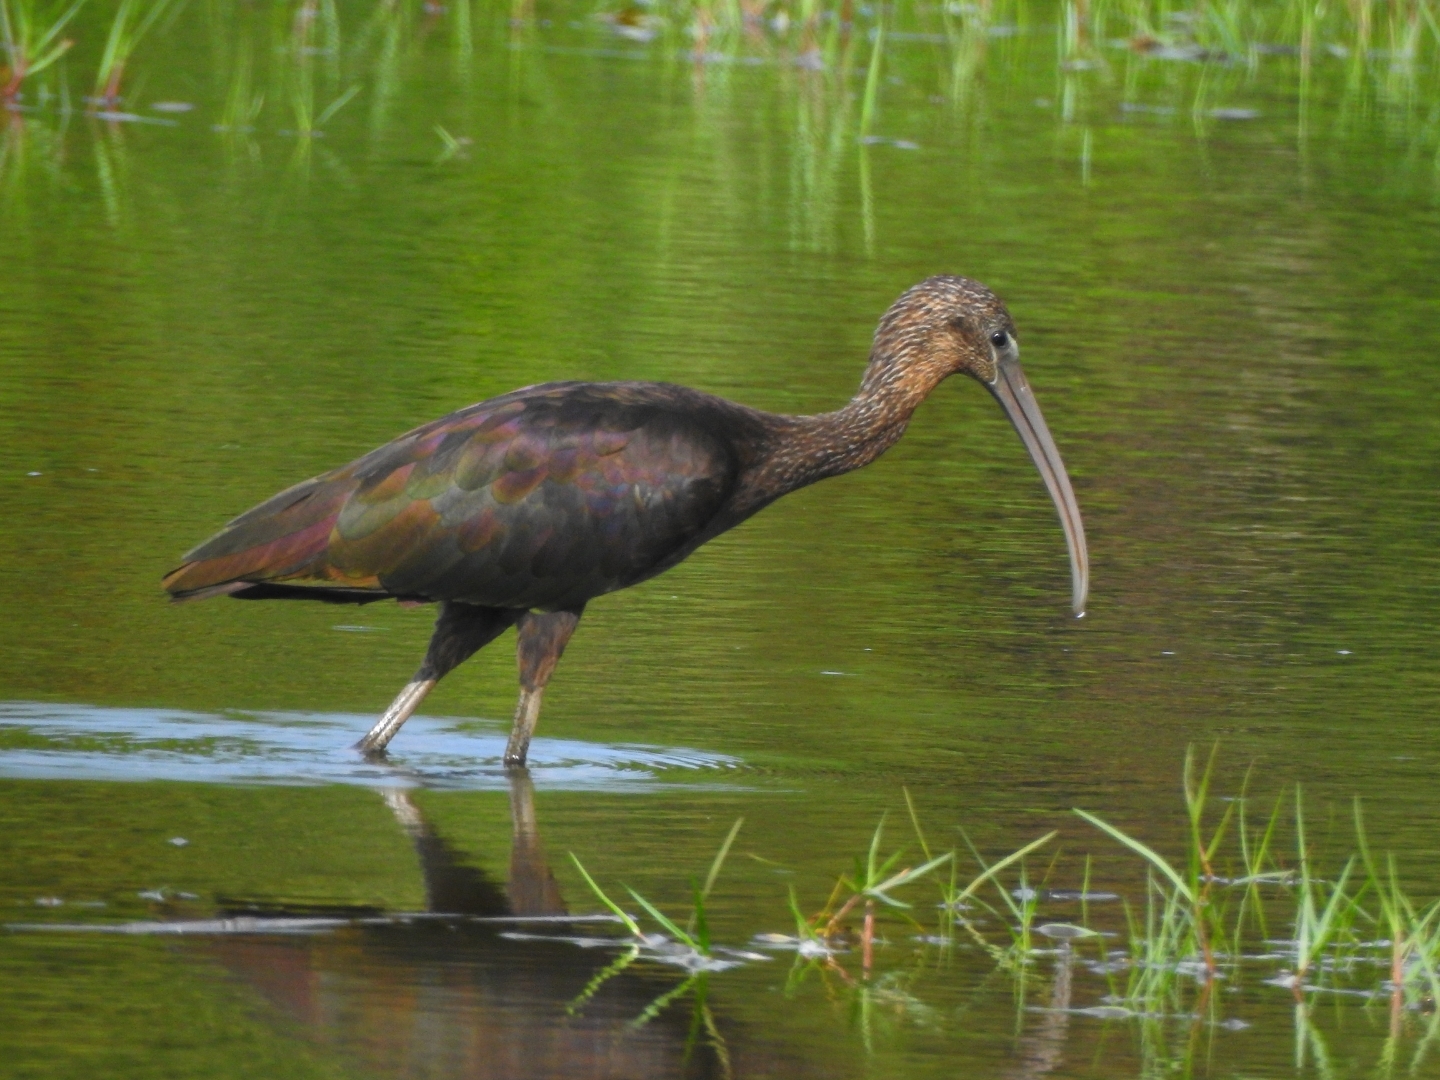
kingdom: Animalia
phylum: Chordata
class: Aves
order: Pelecaniformes
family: Threskiornithidae
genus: Plegadis
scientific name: Plegadis falcinellus
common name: Glossy ibis
